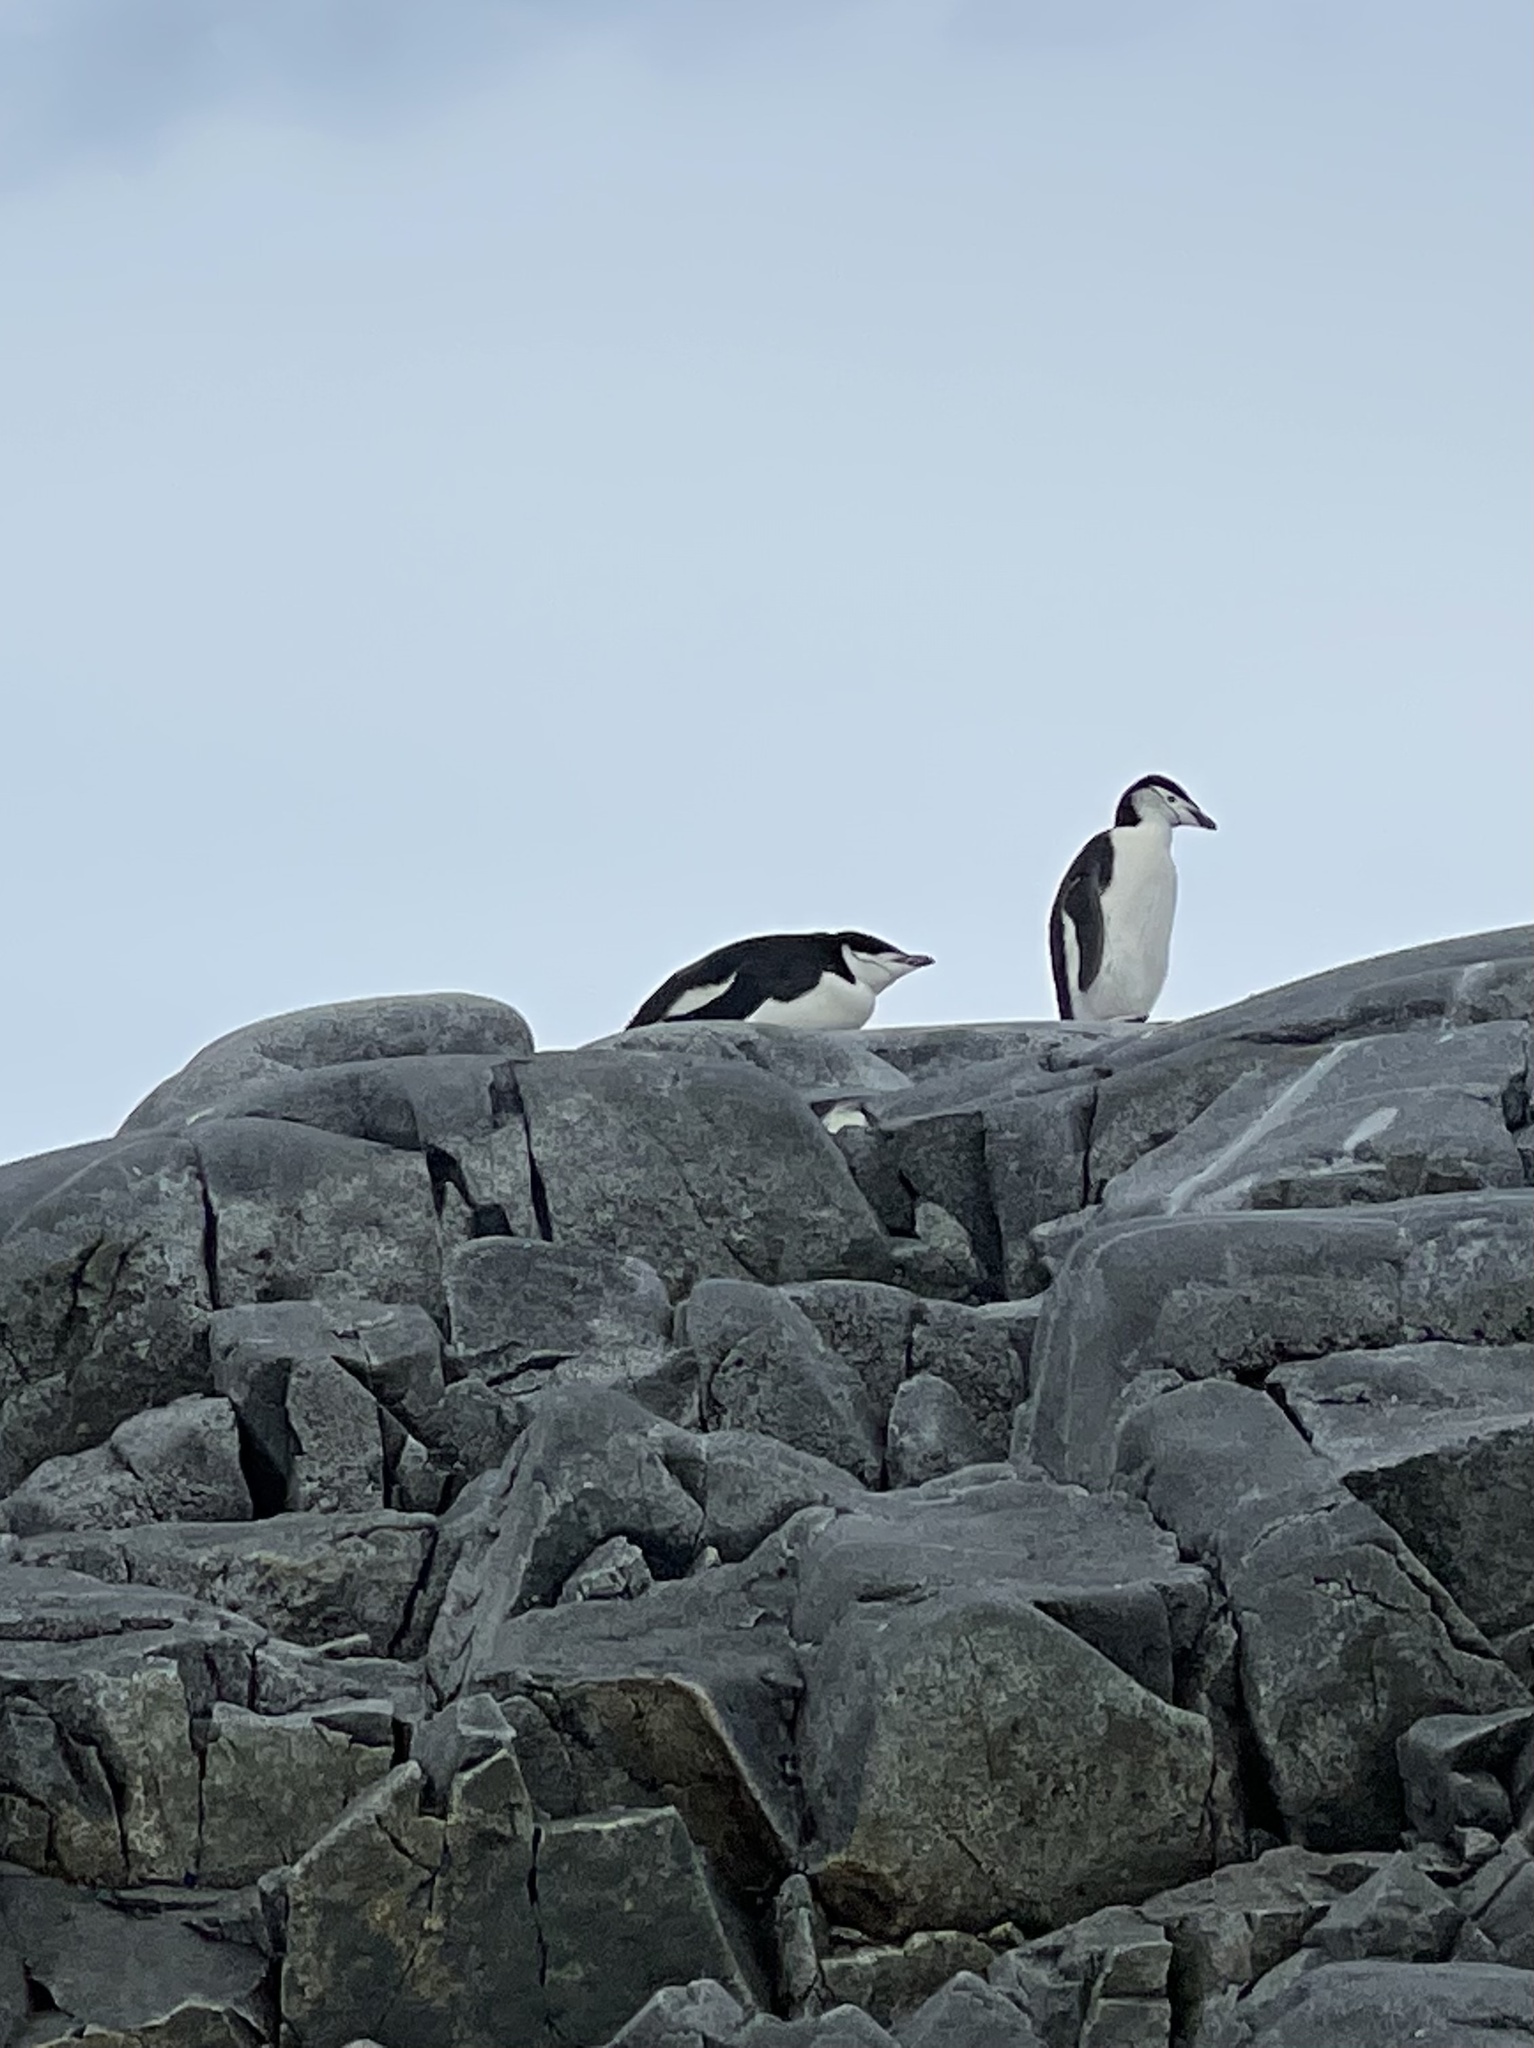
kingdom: Animalia
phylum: Chordata
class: Aves
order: Sphenisciformes
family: Spheniscidae
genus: Pygoscelis
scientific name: Pygoscelis antarcticus
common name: Chinstrap penguin
